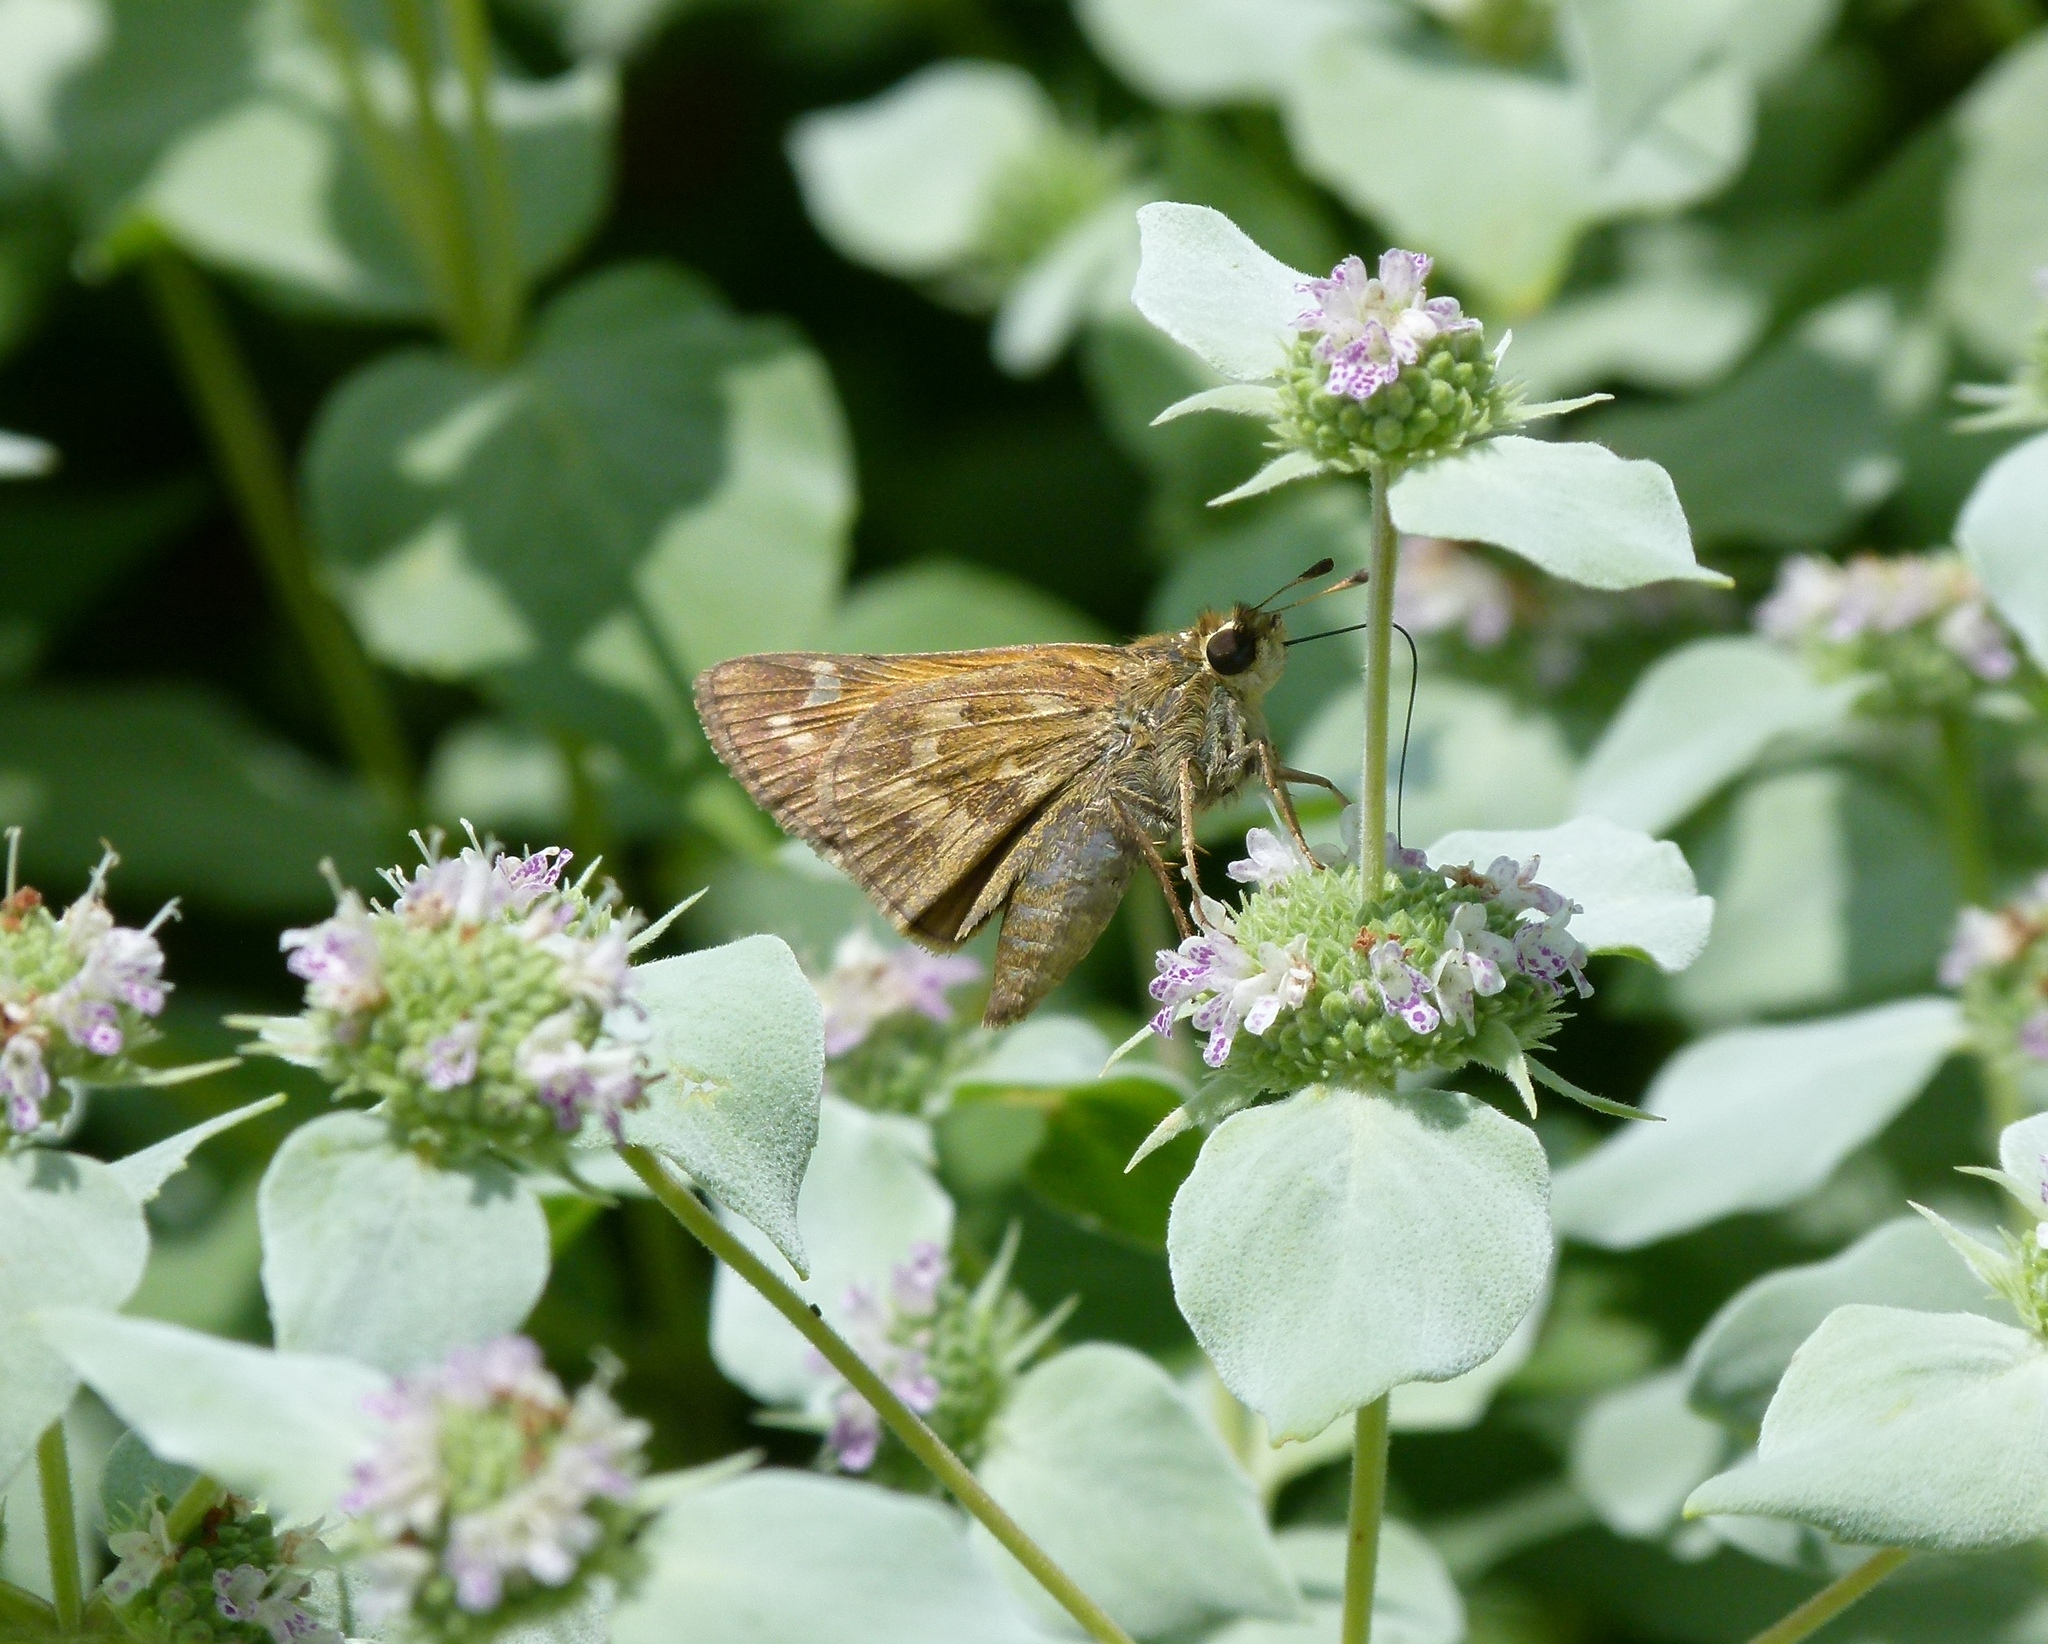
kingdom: Animalia
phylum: Arthropoda
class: Insecta
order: Lepidoptera
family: Hesperiidae
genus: Atalopedes
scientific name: Atalopedes
